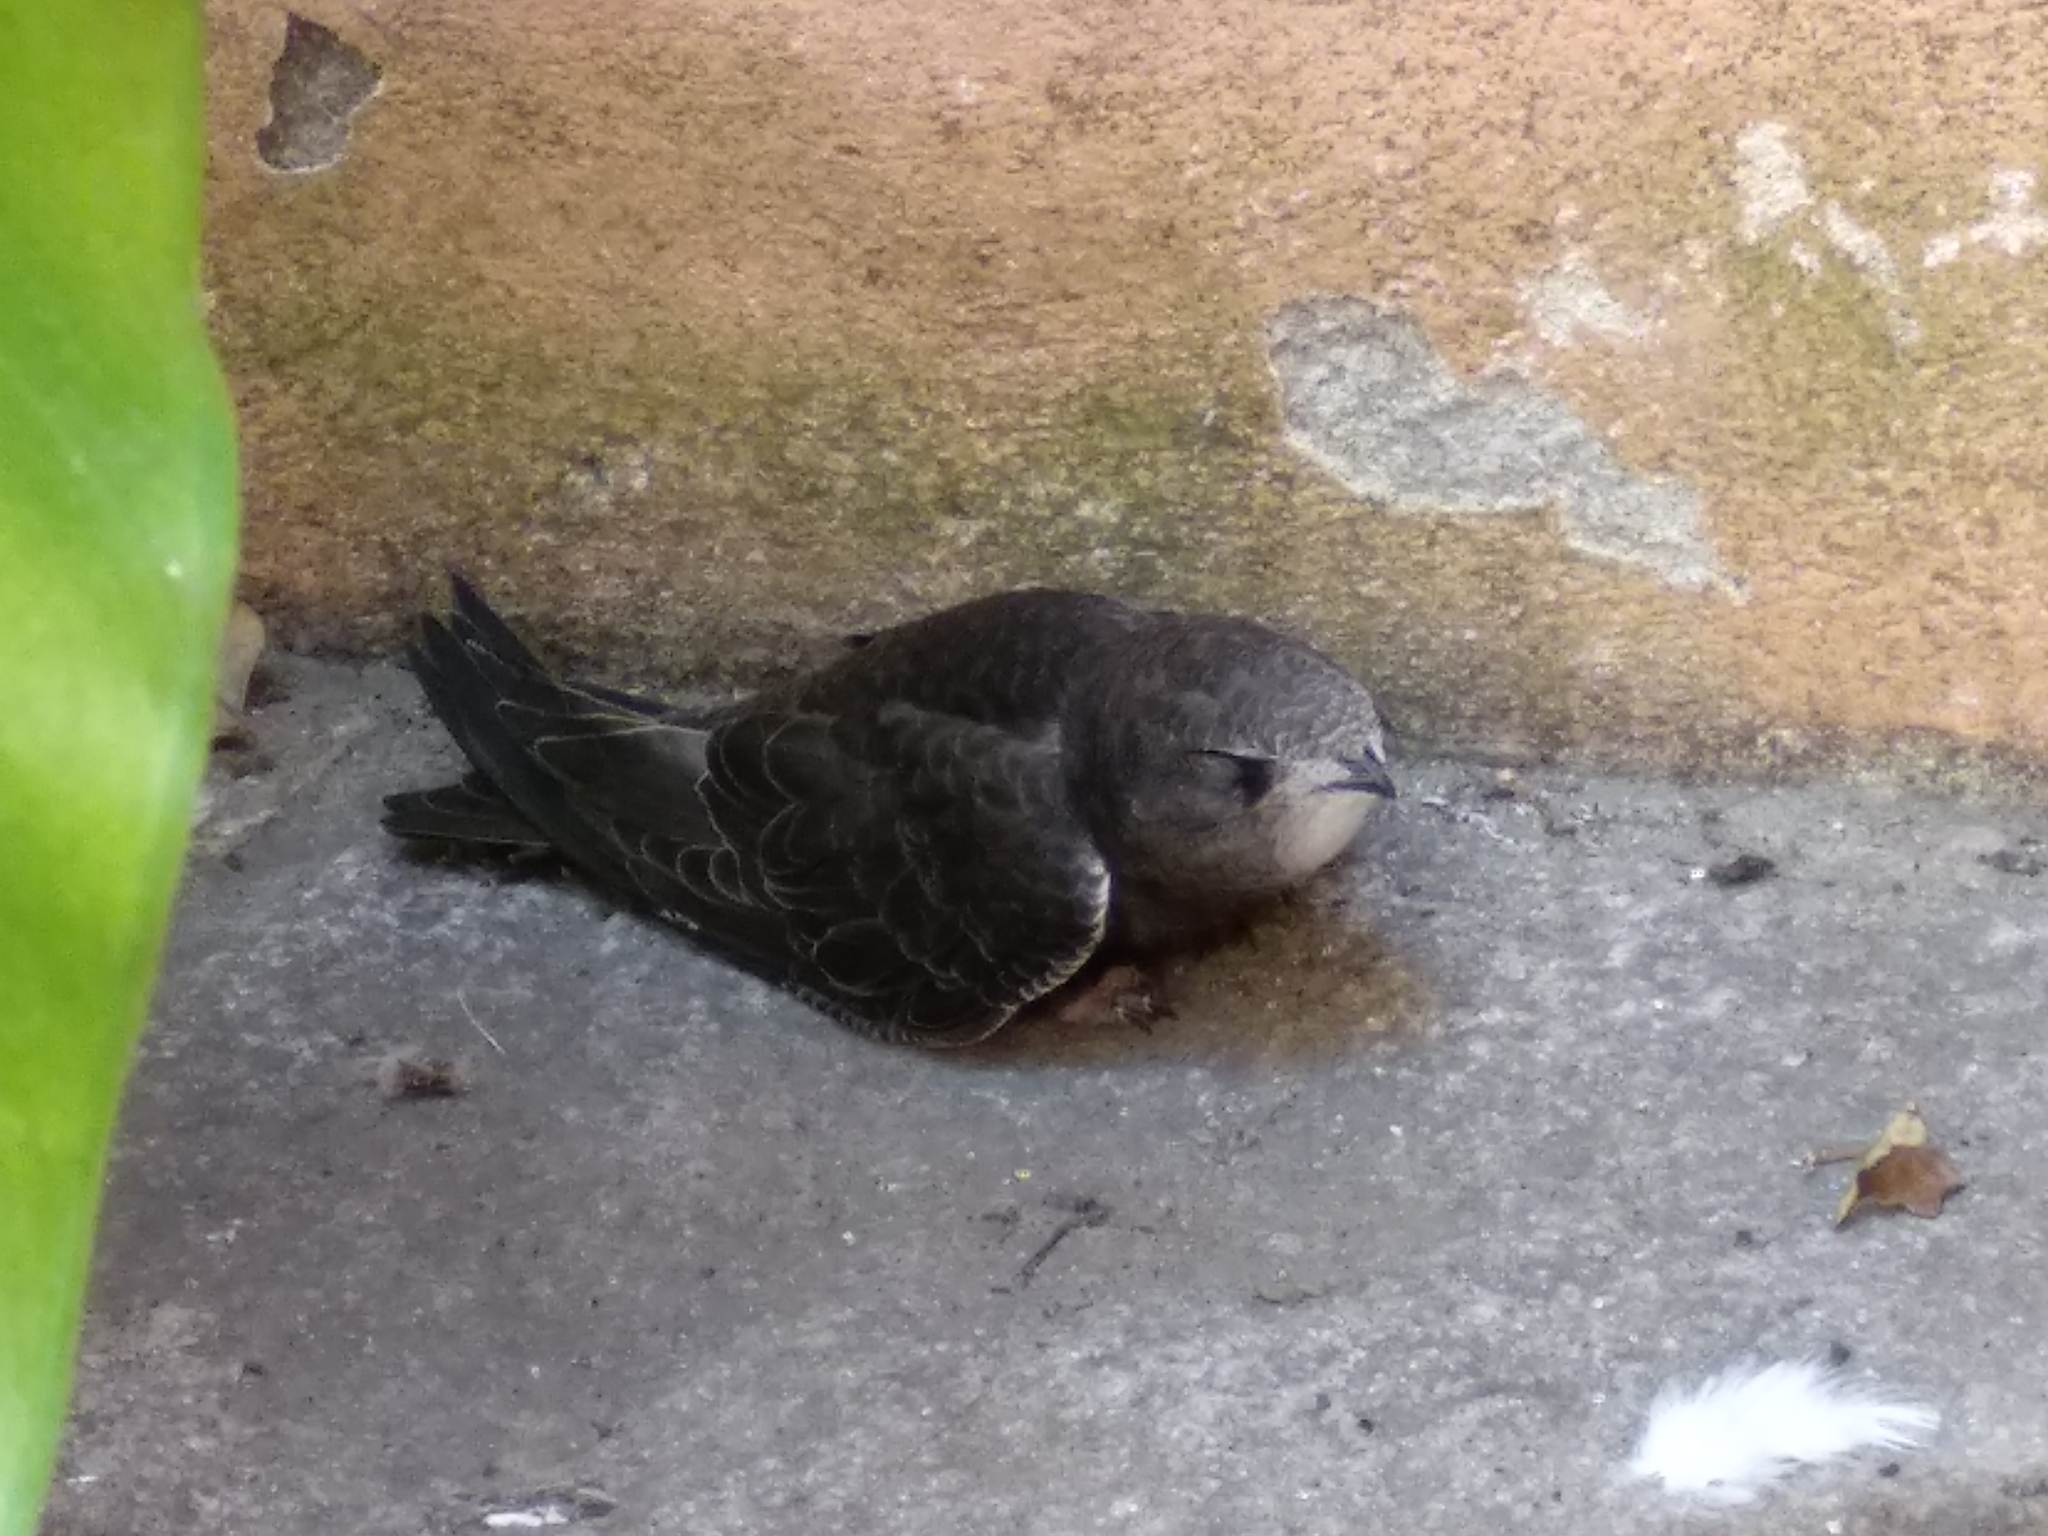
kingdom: Animalia
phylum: Chordata
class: Aves
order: Apodiformes
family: Apodidae
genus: Apus
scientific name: Apus apus
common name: Common swift
